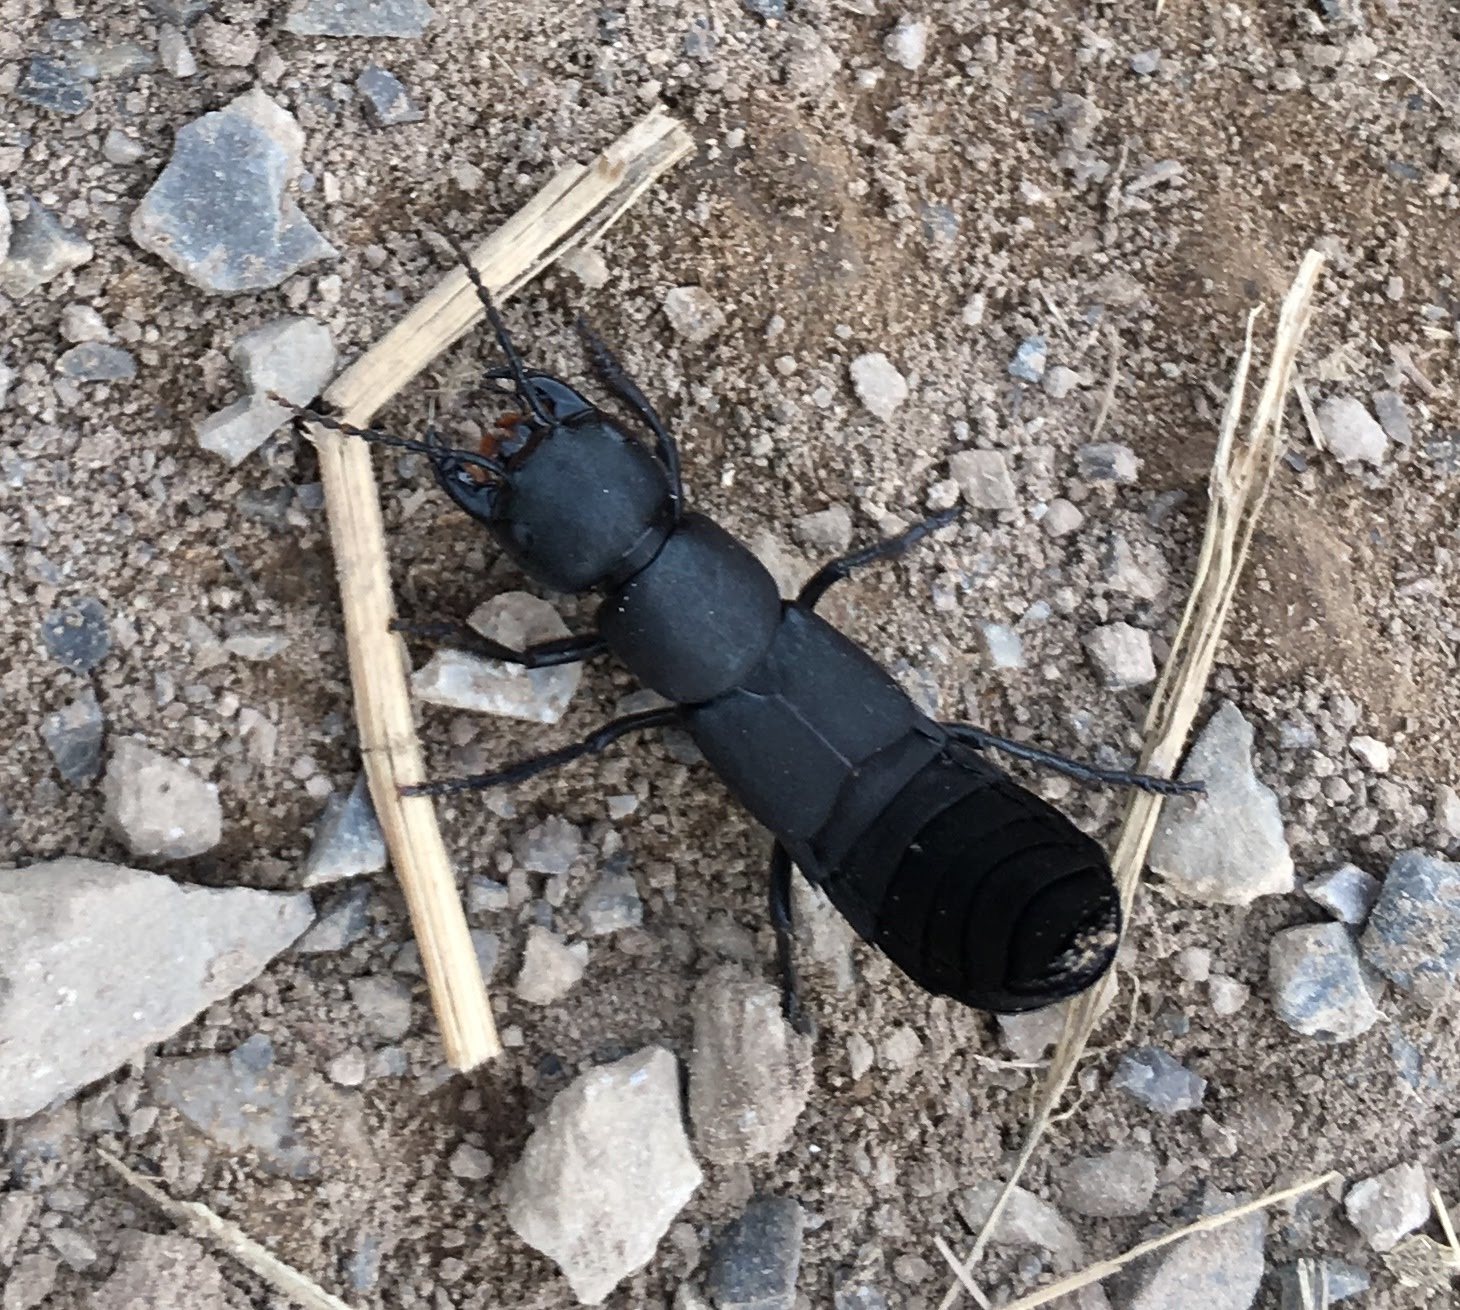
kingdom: Animalia
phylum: Arthropoda
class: Insecta
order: Coleoptera
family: Staphylinidae
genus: Ocypus
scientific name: Ocypus olens
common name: Devil's coach-horse
